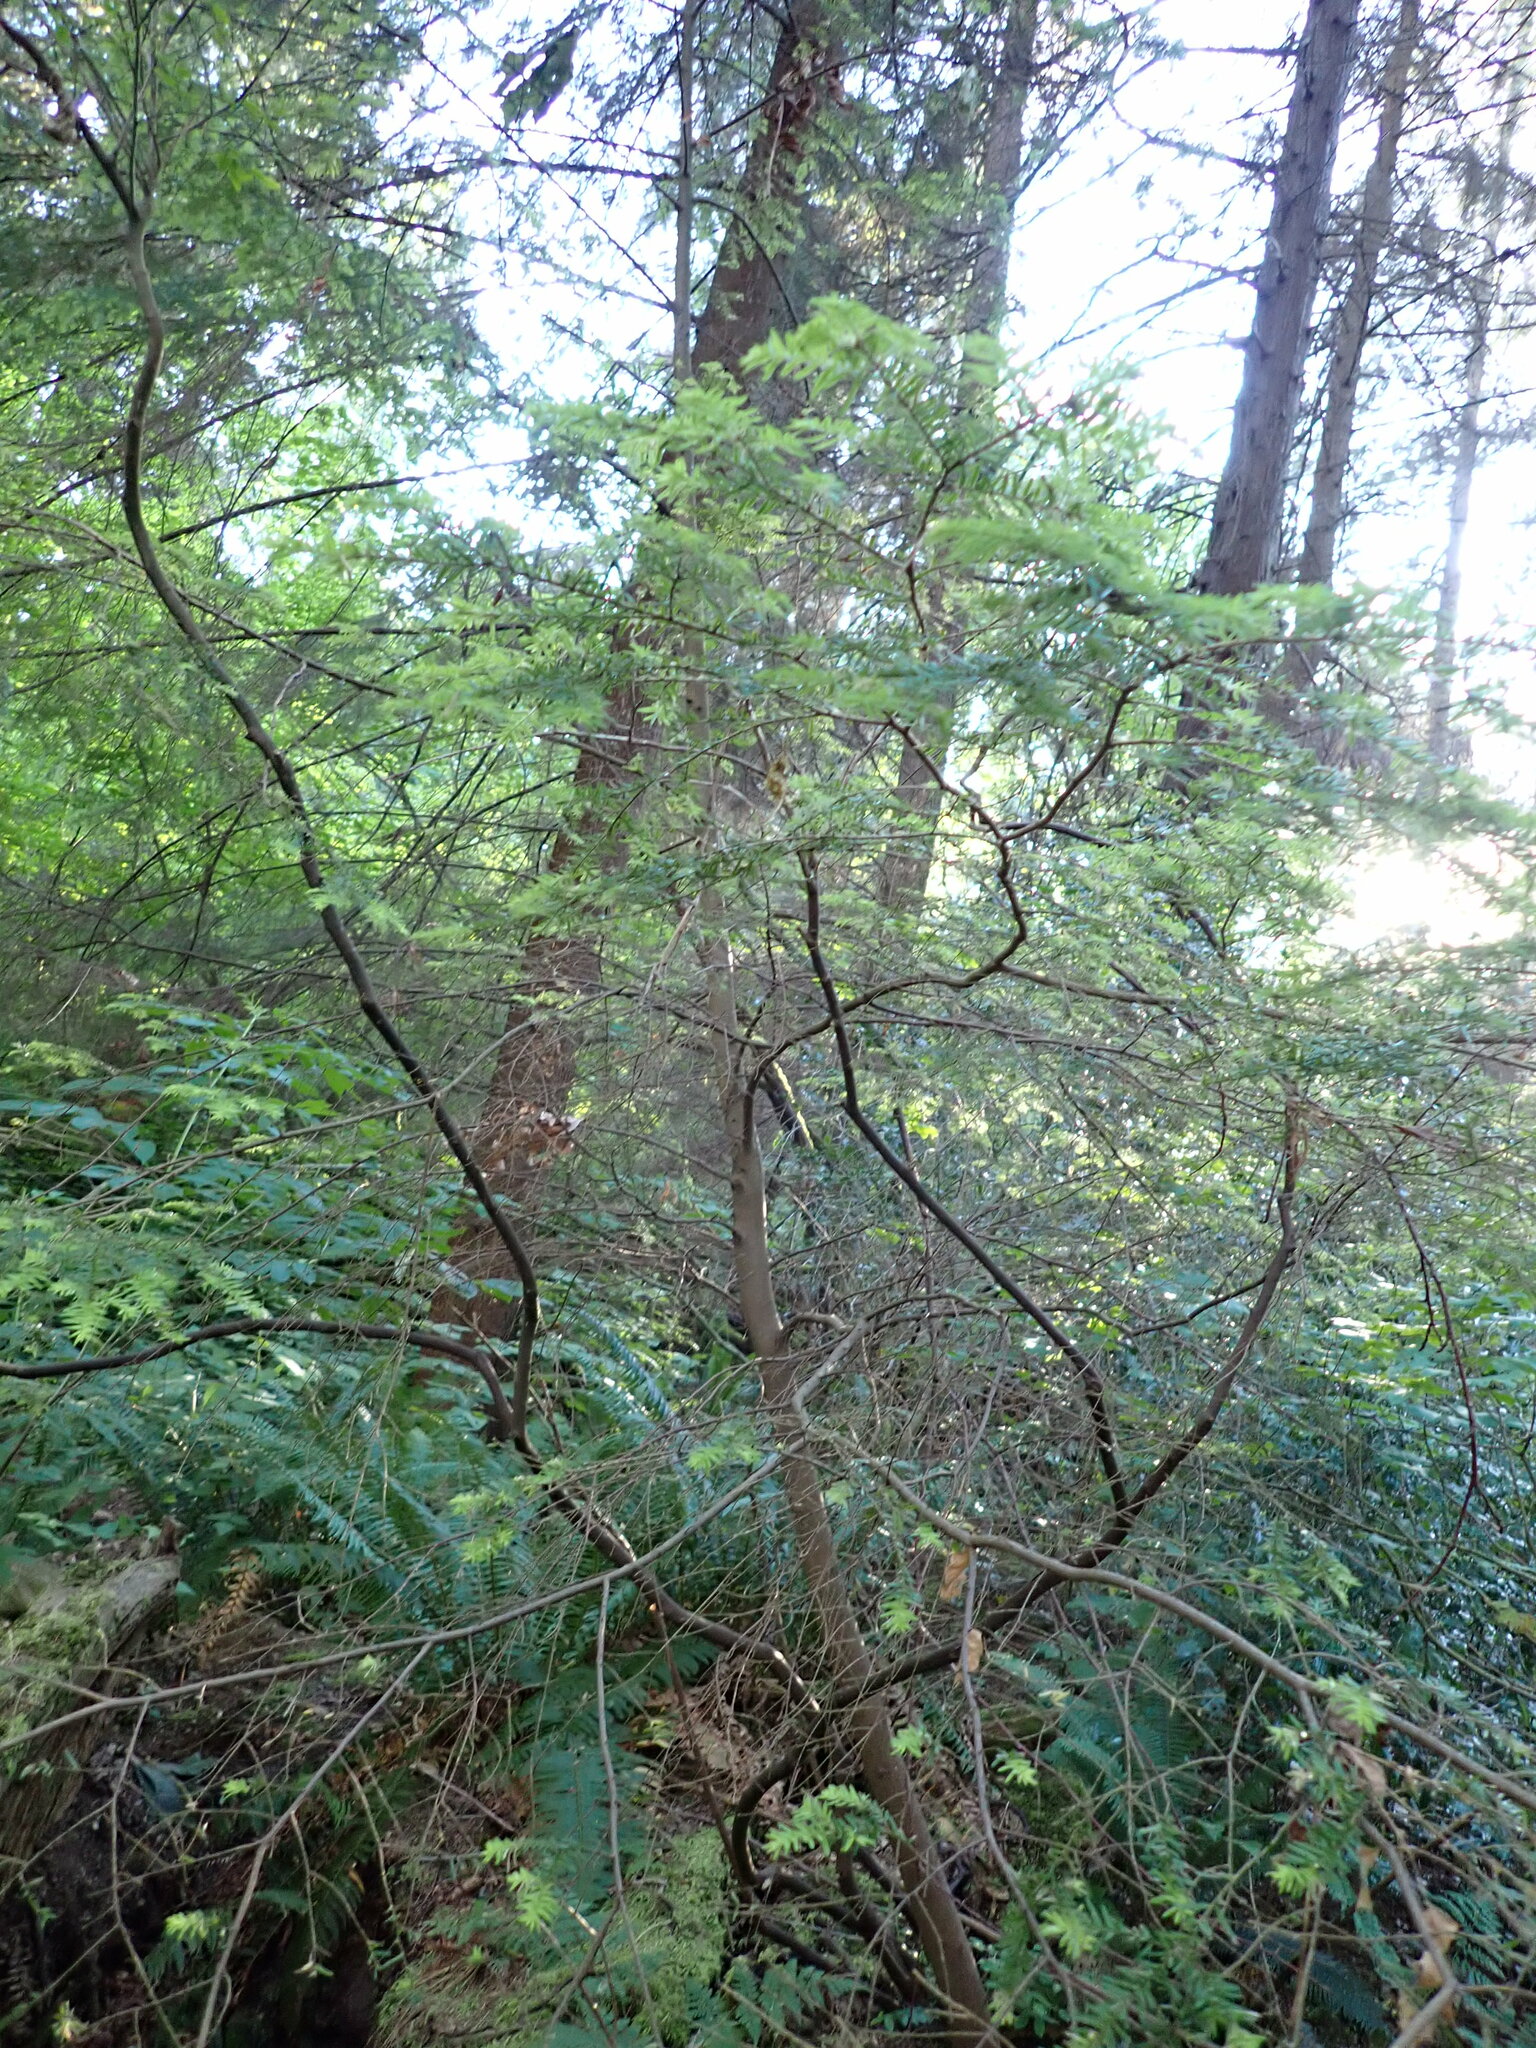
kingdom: Plantae
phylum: Tracheophyta
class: Pinopsida
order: Pinales
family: Pinaceae
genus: Tsuga
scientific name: Tsuga heterophylla
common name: Western hemlock
